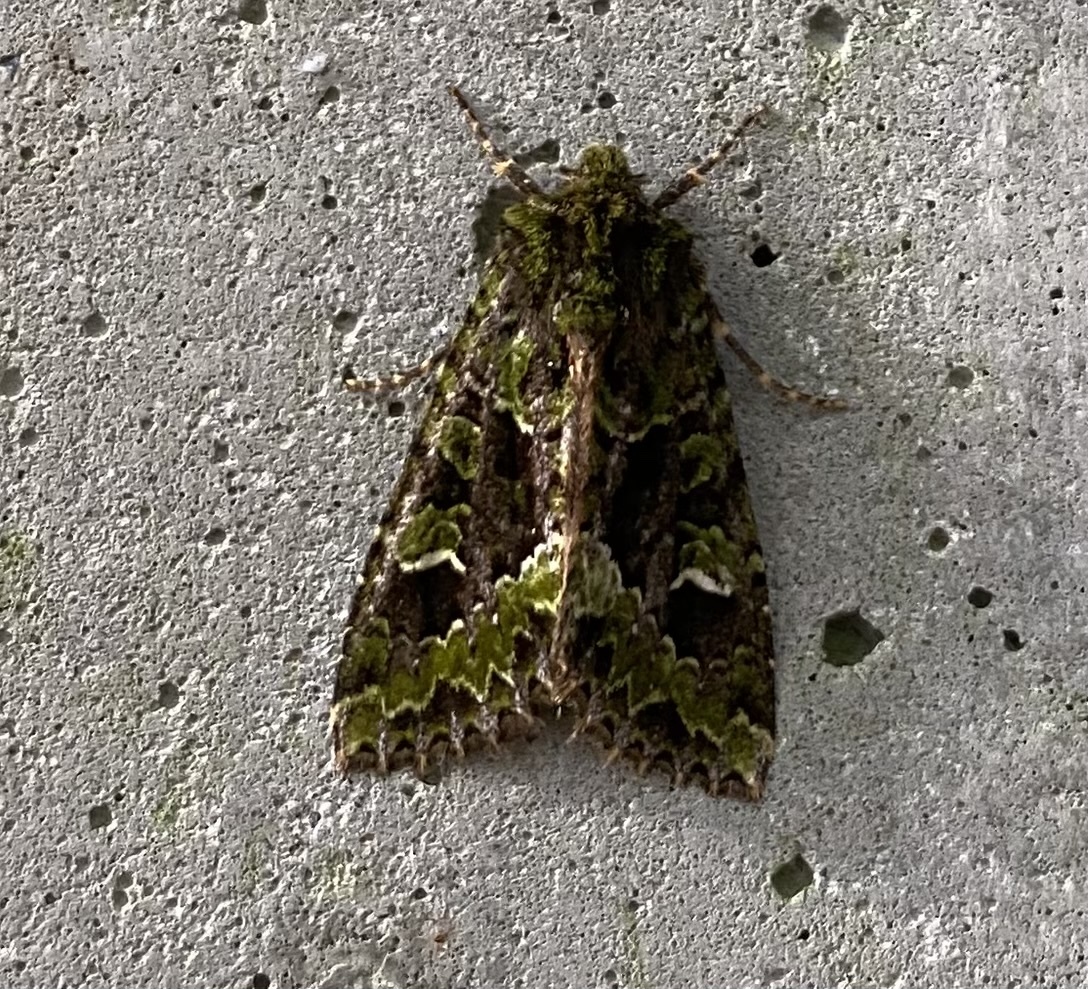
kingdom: Animalia
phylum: Arthropoda
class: Insecta
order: Lepidoptera
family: Noctuidae
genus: Antivaleria
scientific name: Antivaleria viridimacula
